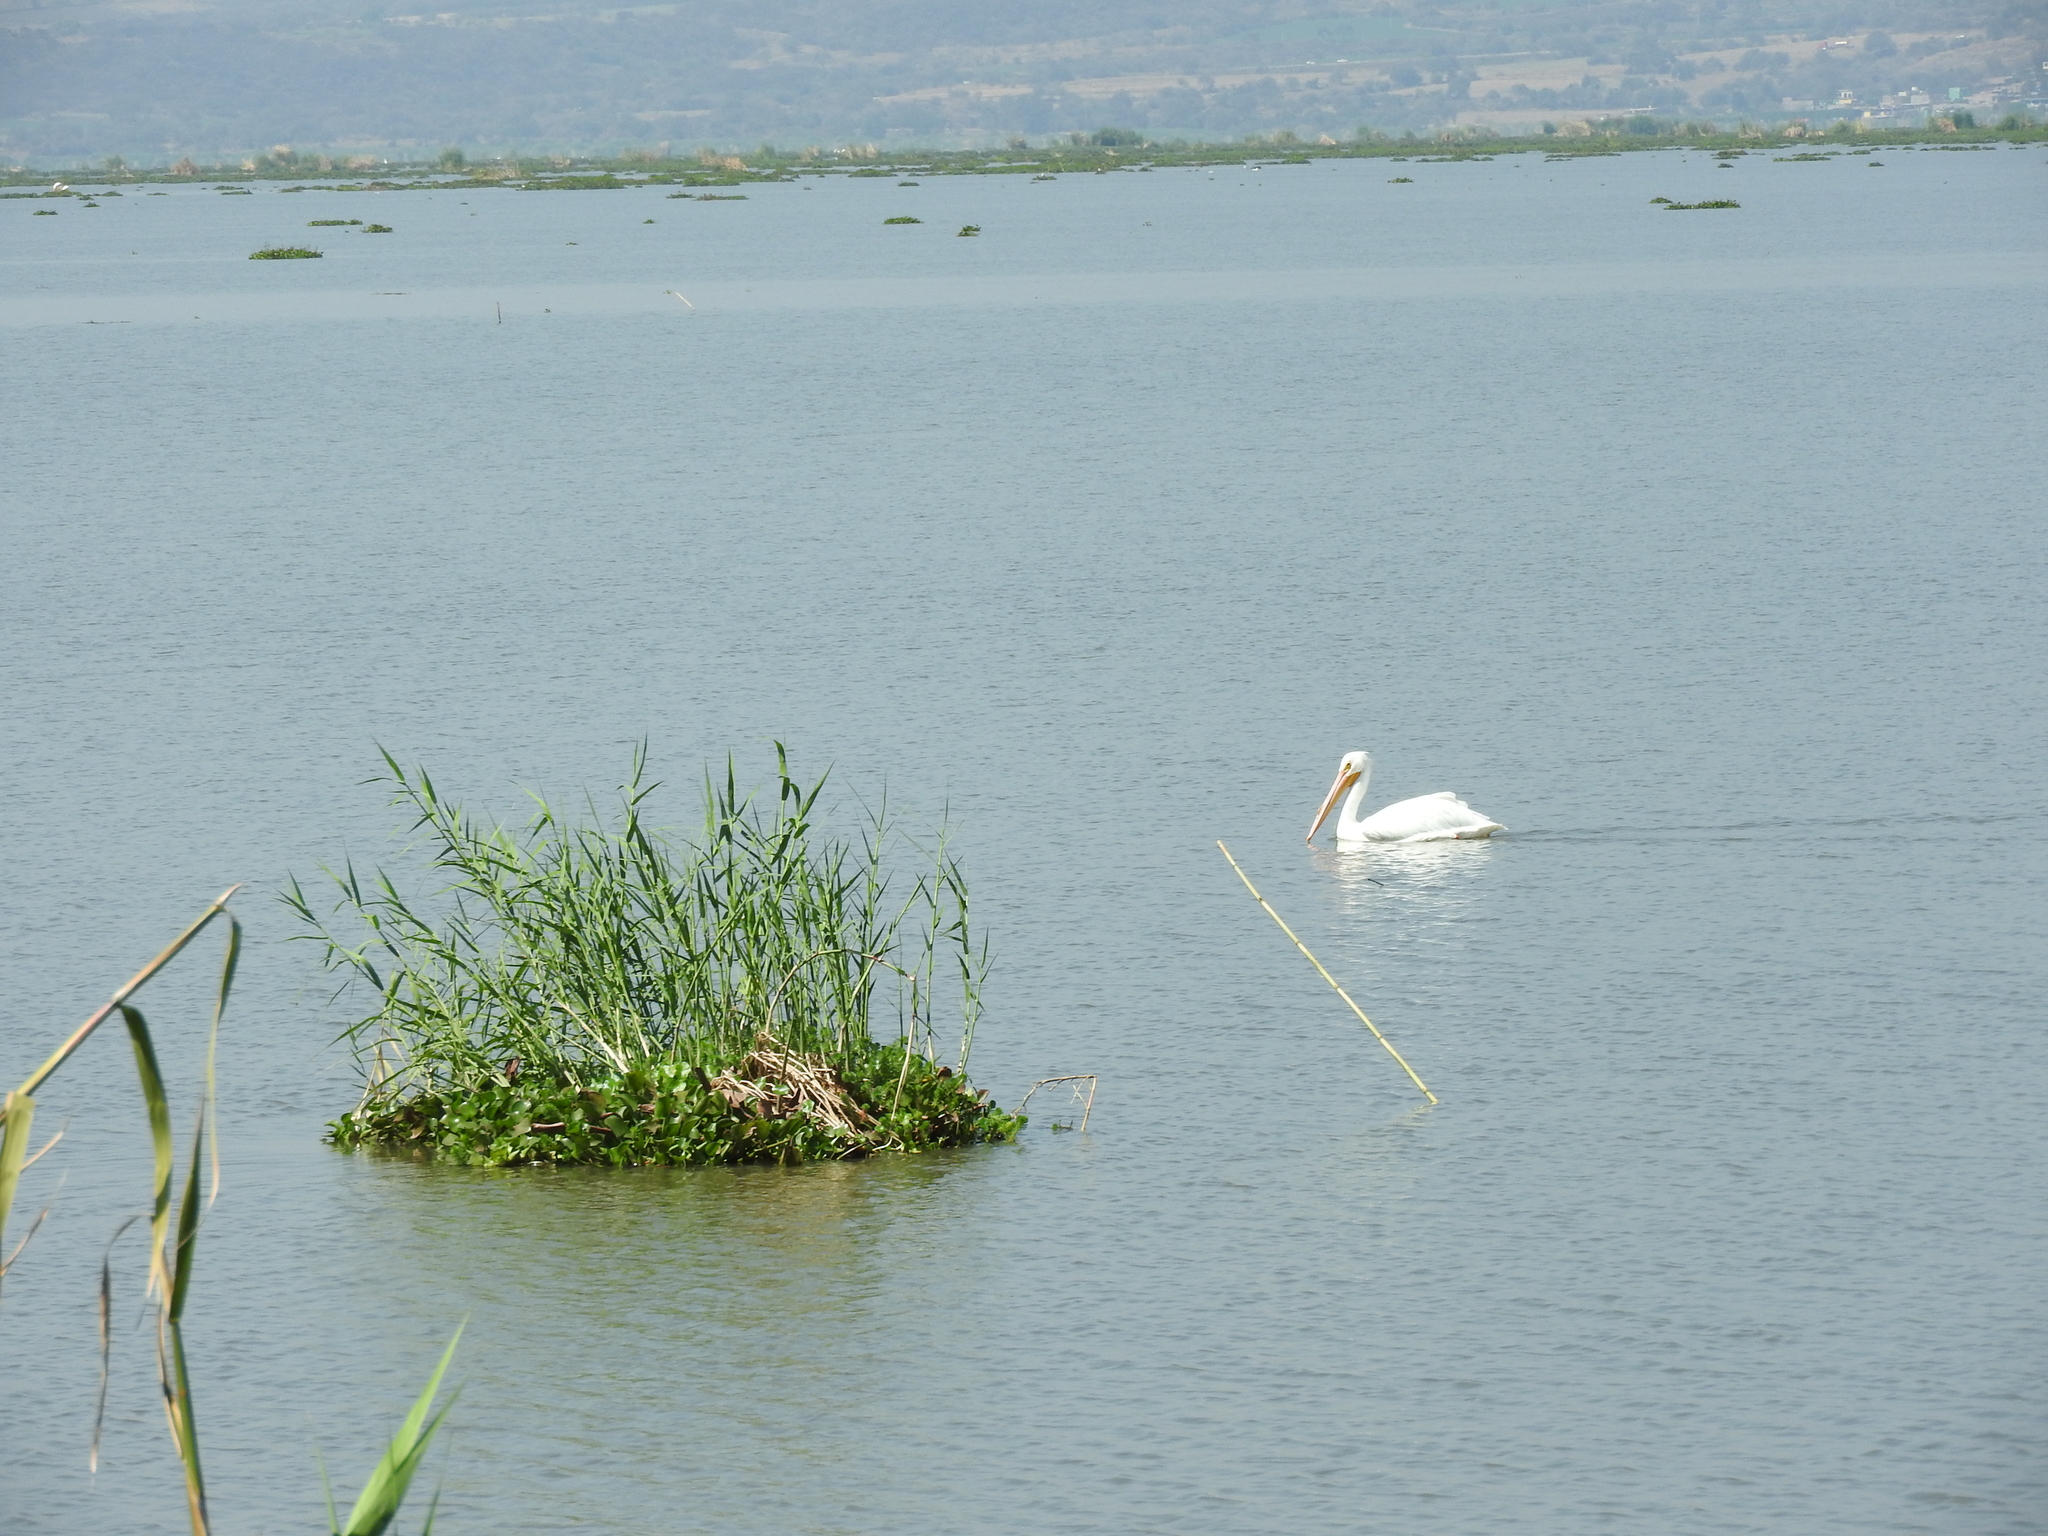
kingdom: Animalia
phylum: Chordata
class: Aves
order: Pelecaniformes
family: Pelecanidae
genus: Pelecanus
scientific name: Pelecanus erythrorhynchos
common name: American white pelican
